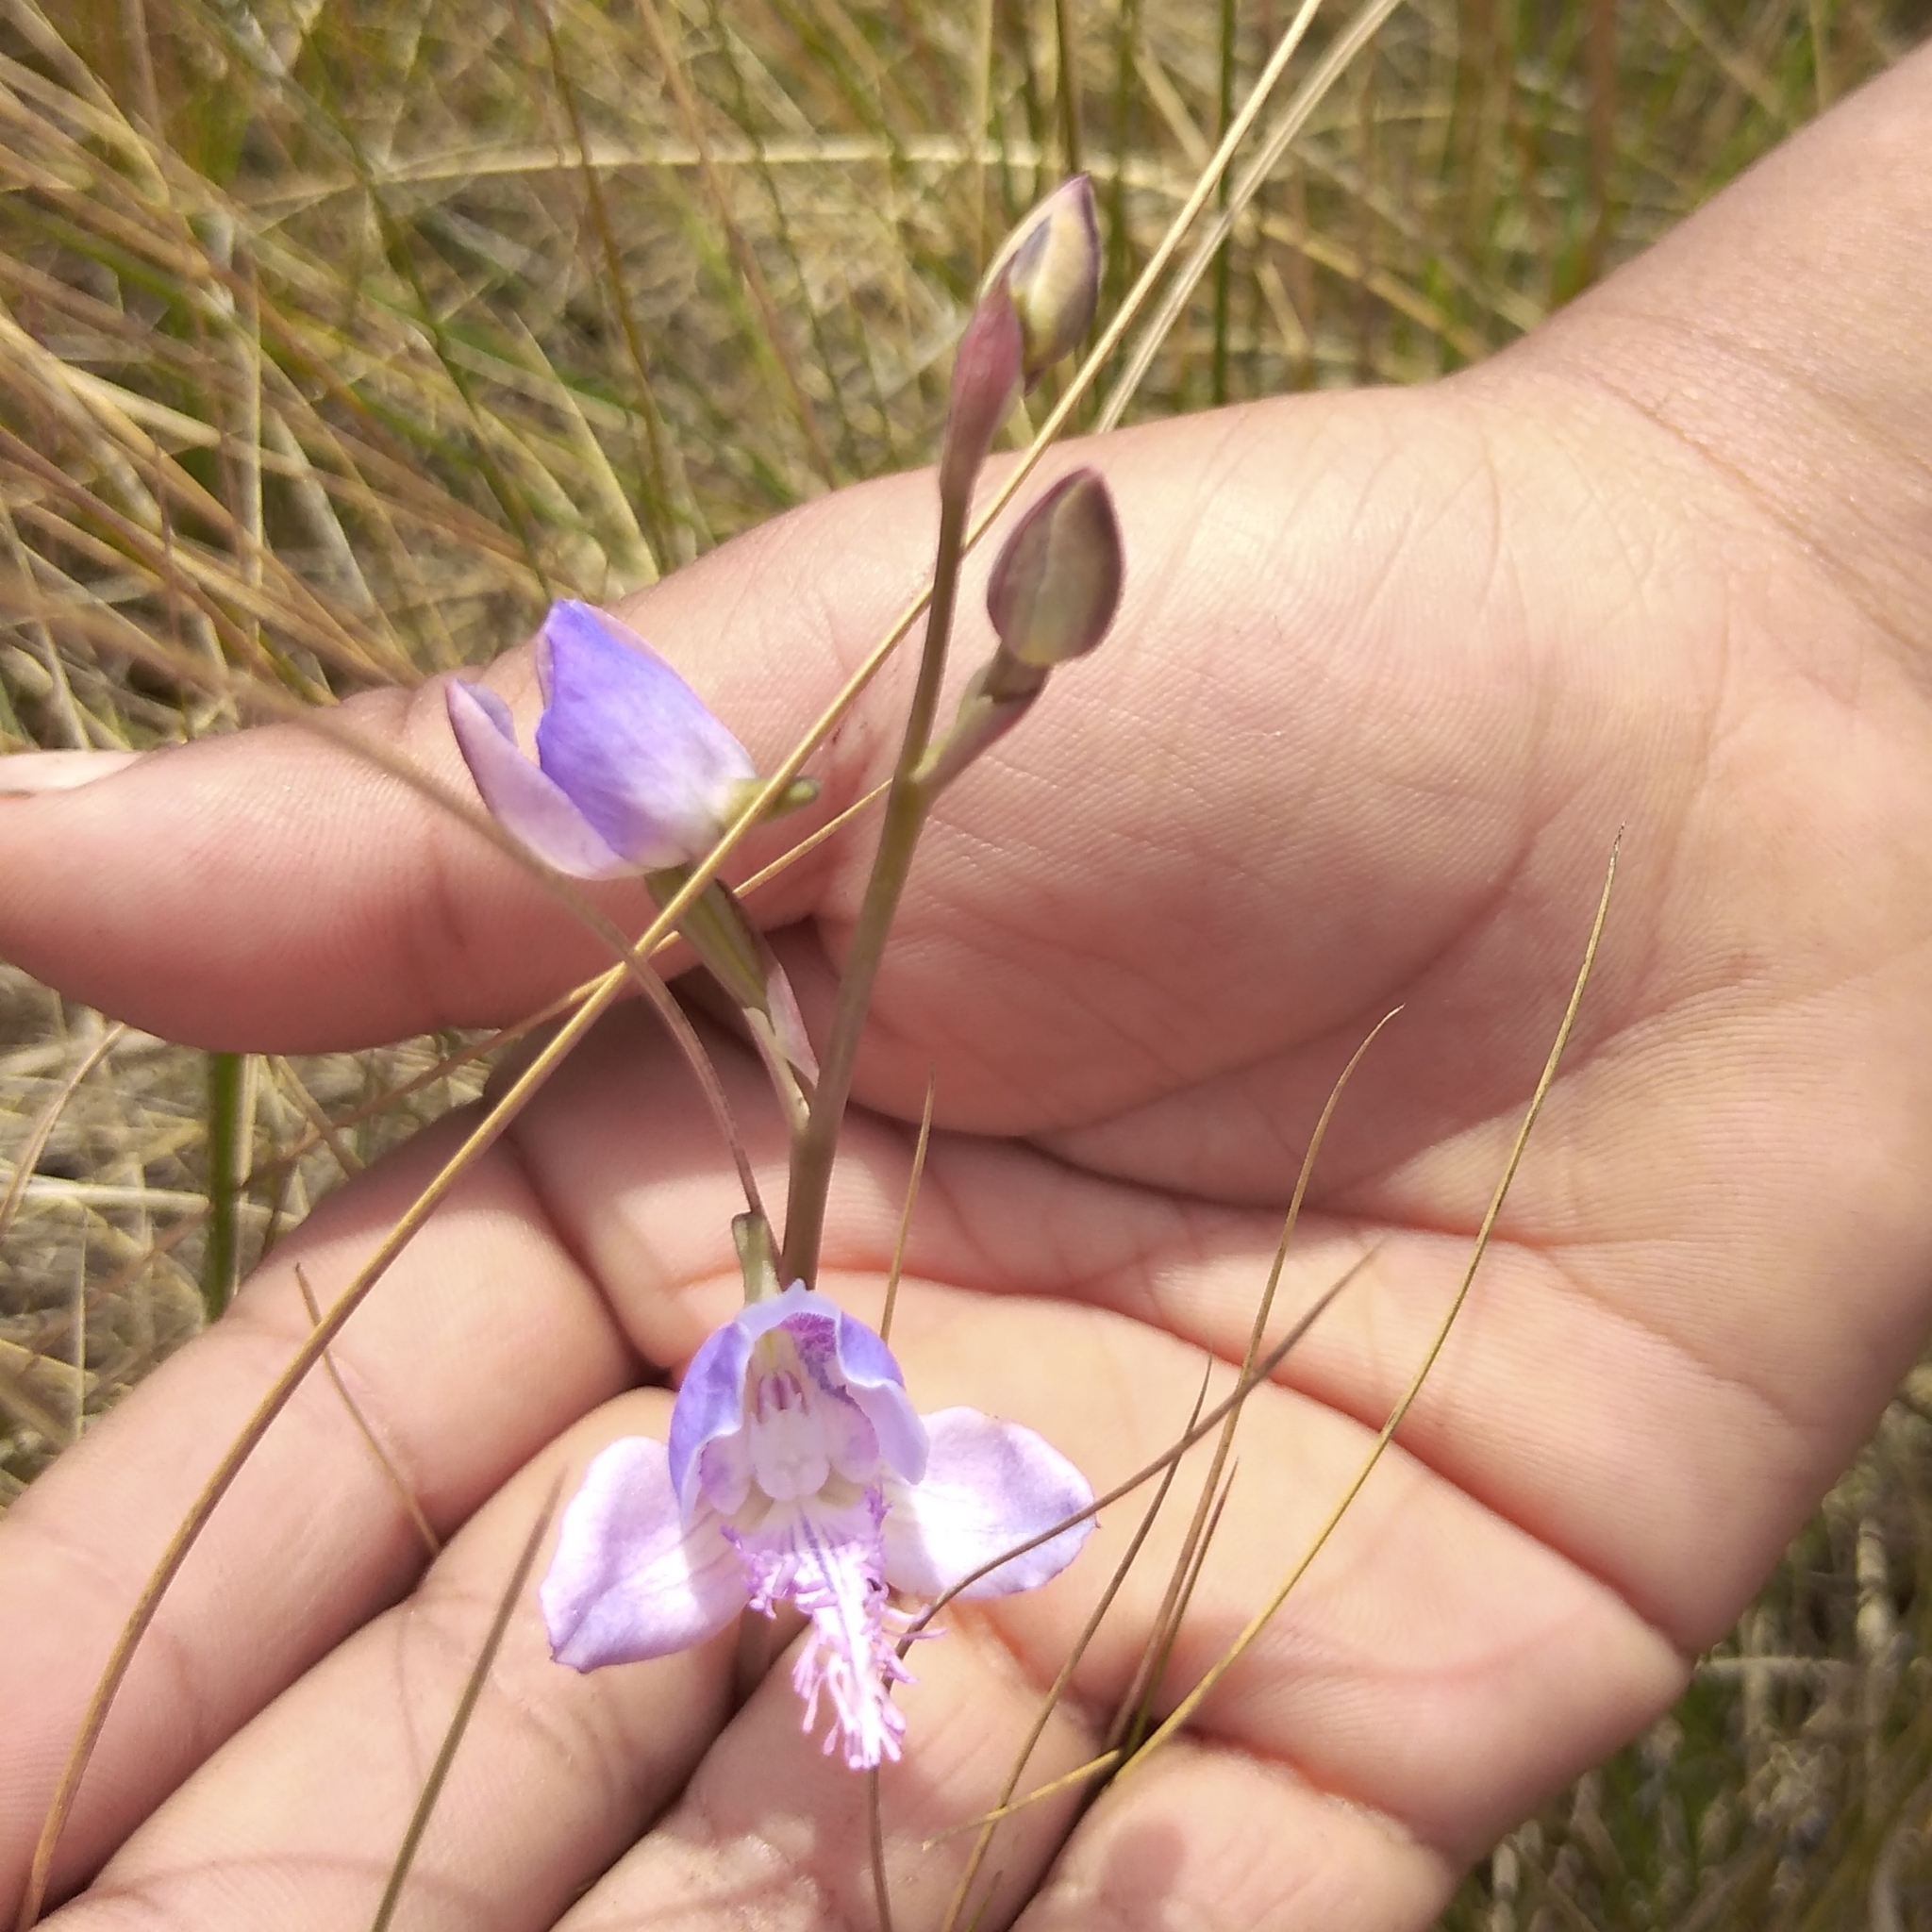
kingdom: Plantae
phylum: Tracheophyta
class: Liliopsida
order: Asparagales
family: Orchidaceae
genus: Disa
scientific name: Disa baurii
